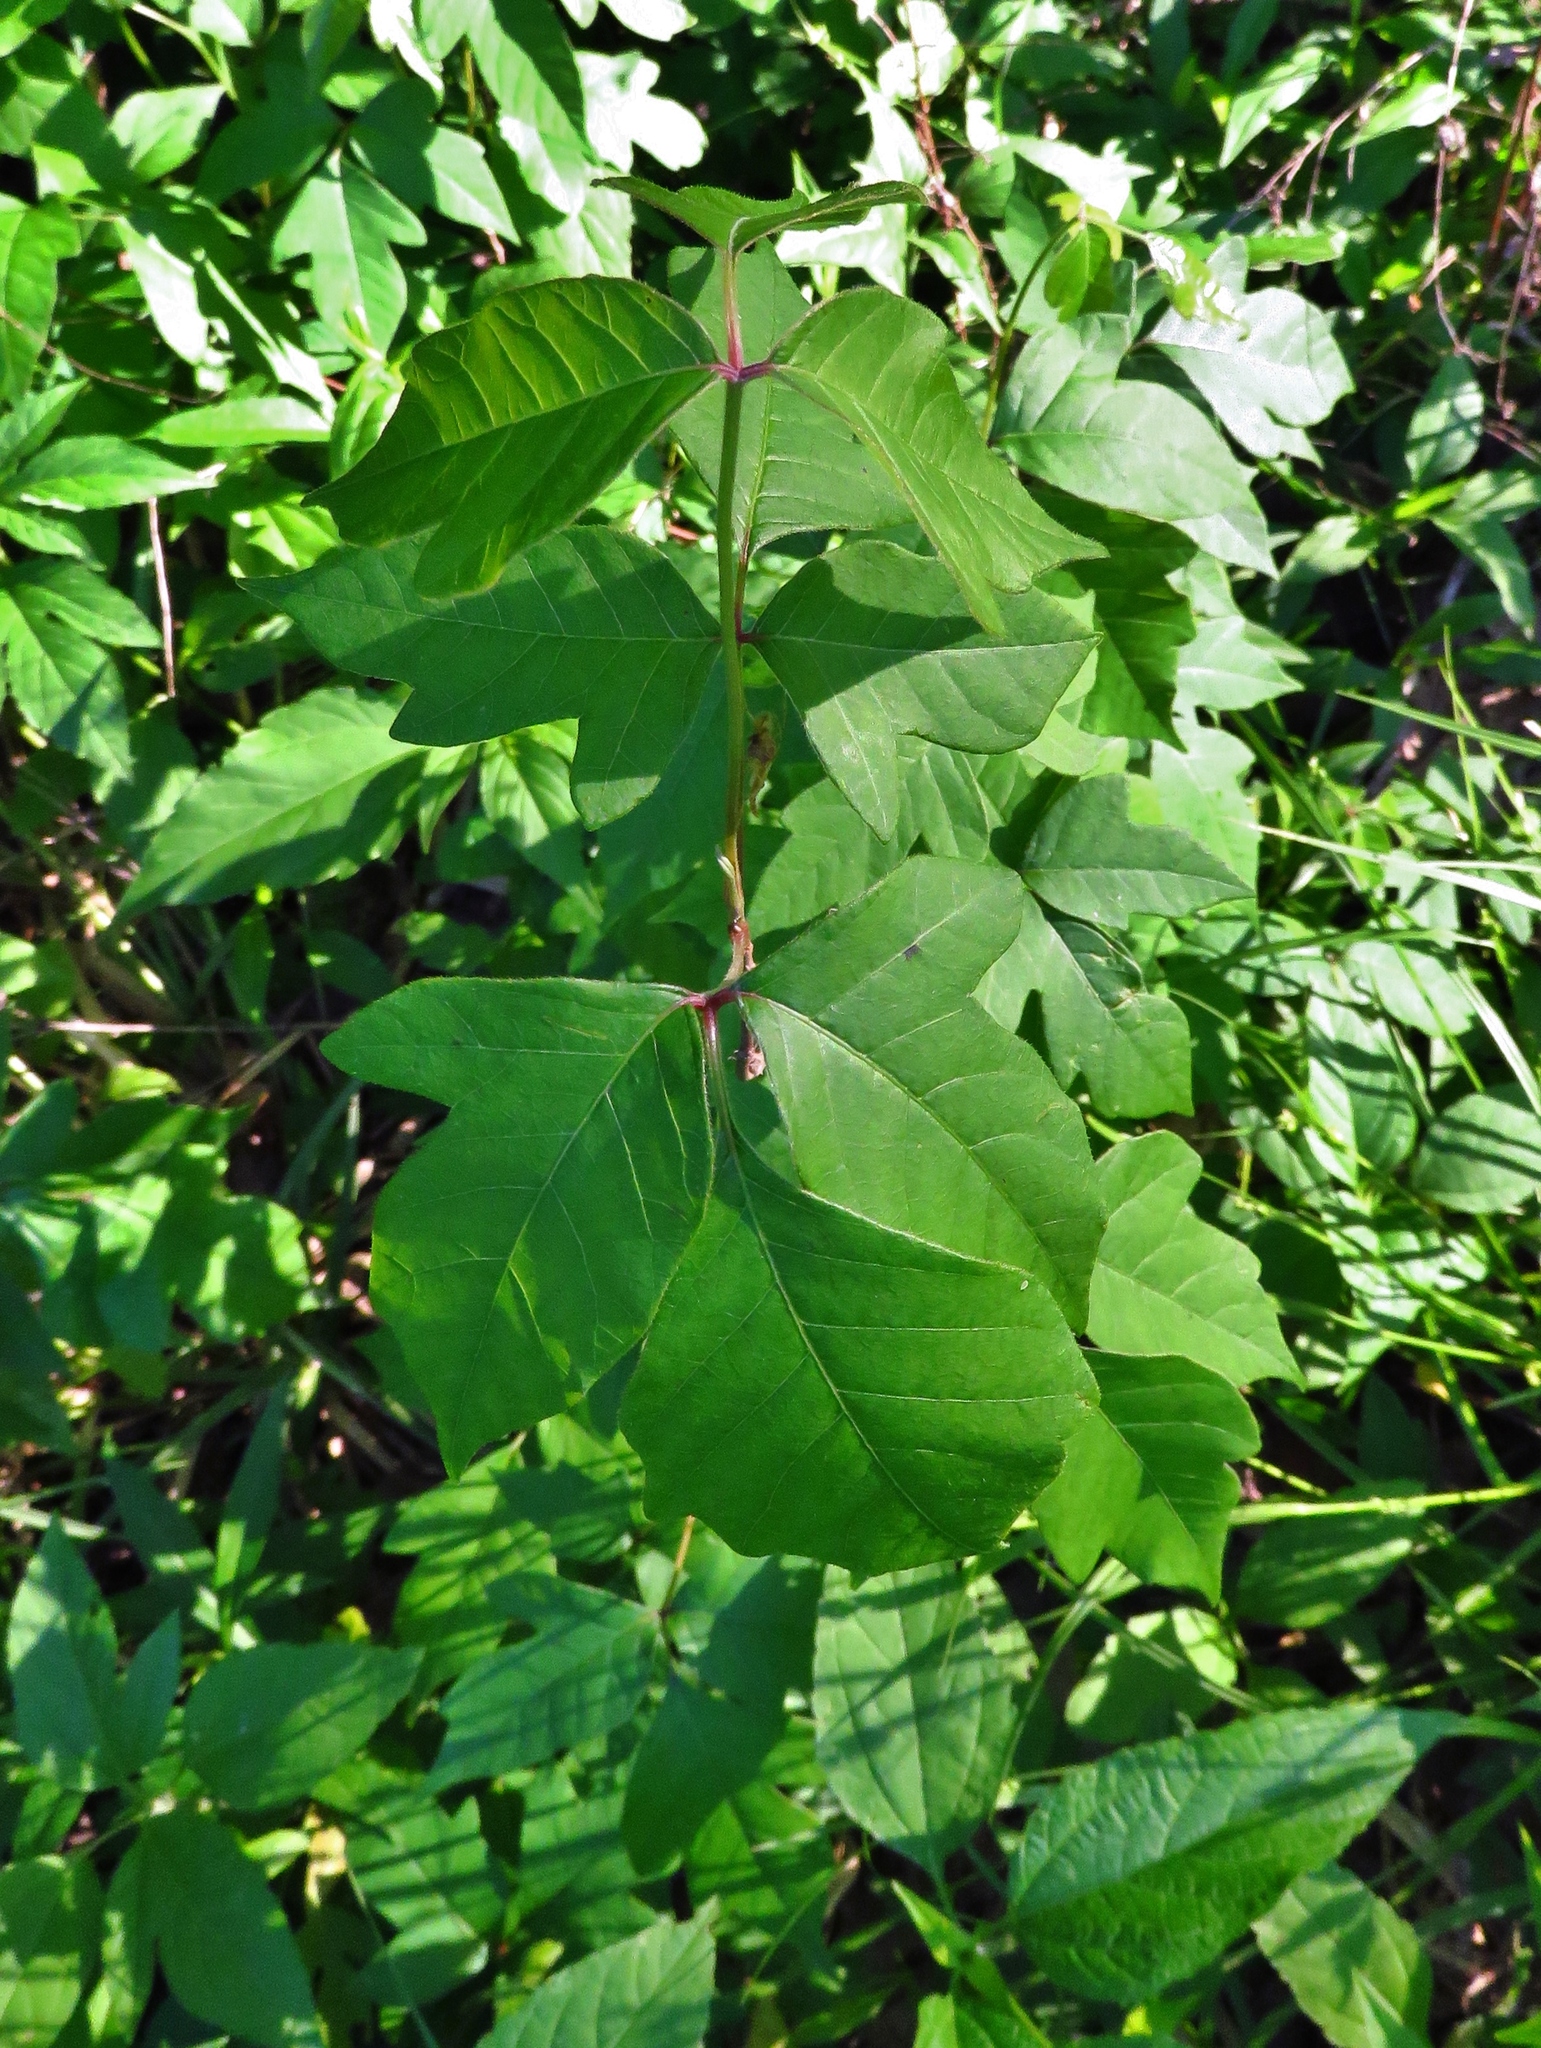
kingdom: Plantae
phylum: Tracheophyta
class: Magnoliopsida
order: Sapindales
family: Anacardiaceae
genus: Toxicodendron
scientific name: Toxicodendron radicans
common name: Poison ivy
